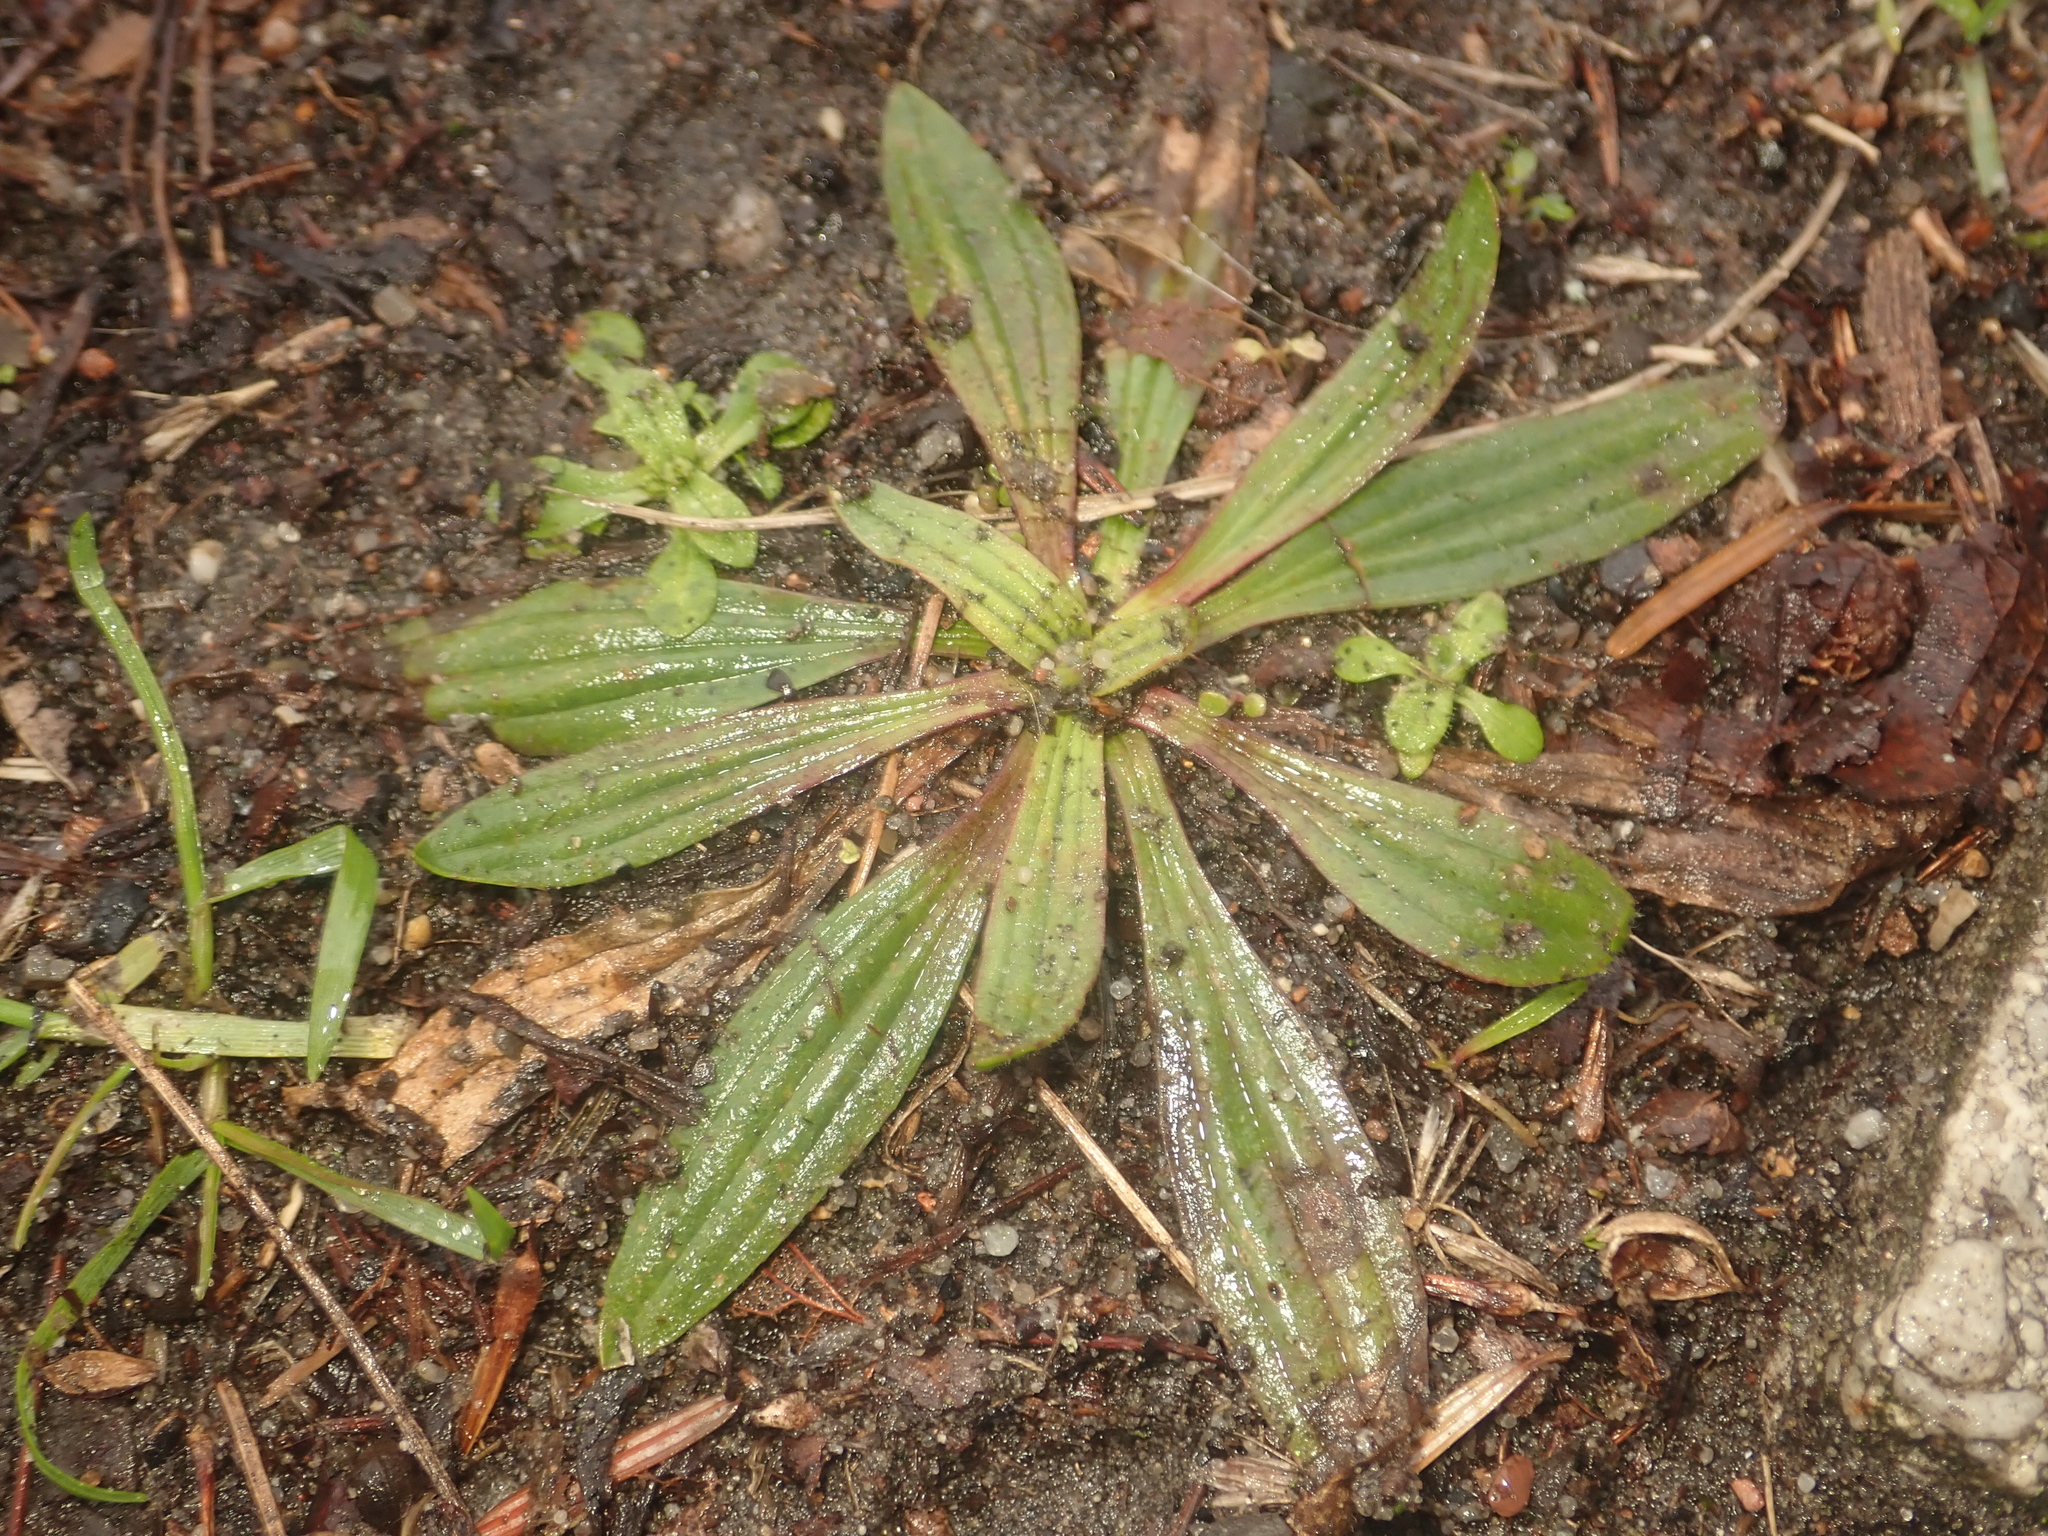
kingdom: Plantae
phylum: Tracheophyta
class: Magnoliopsida
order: Lamiales
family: Plantaginaceae
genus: Plantago
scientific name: Plantago lanceolata
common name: Ribwort plantain
